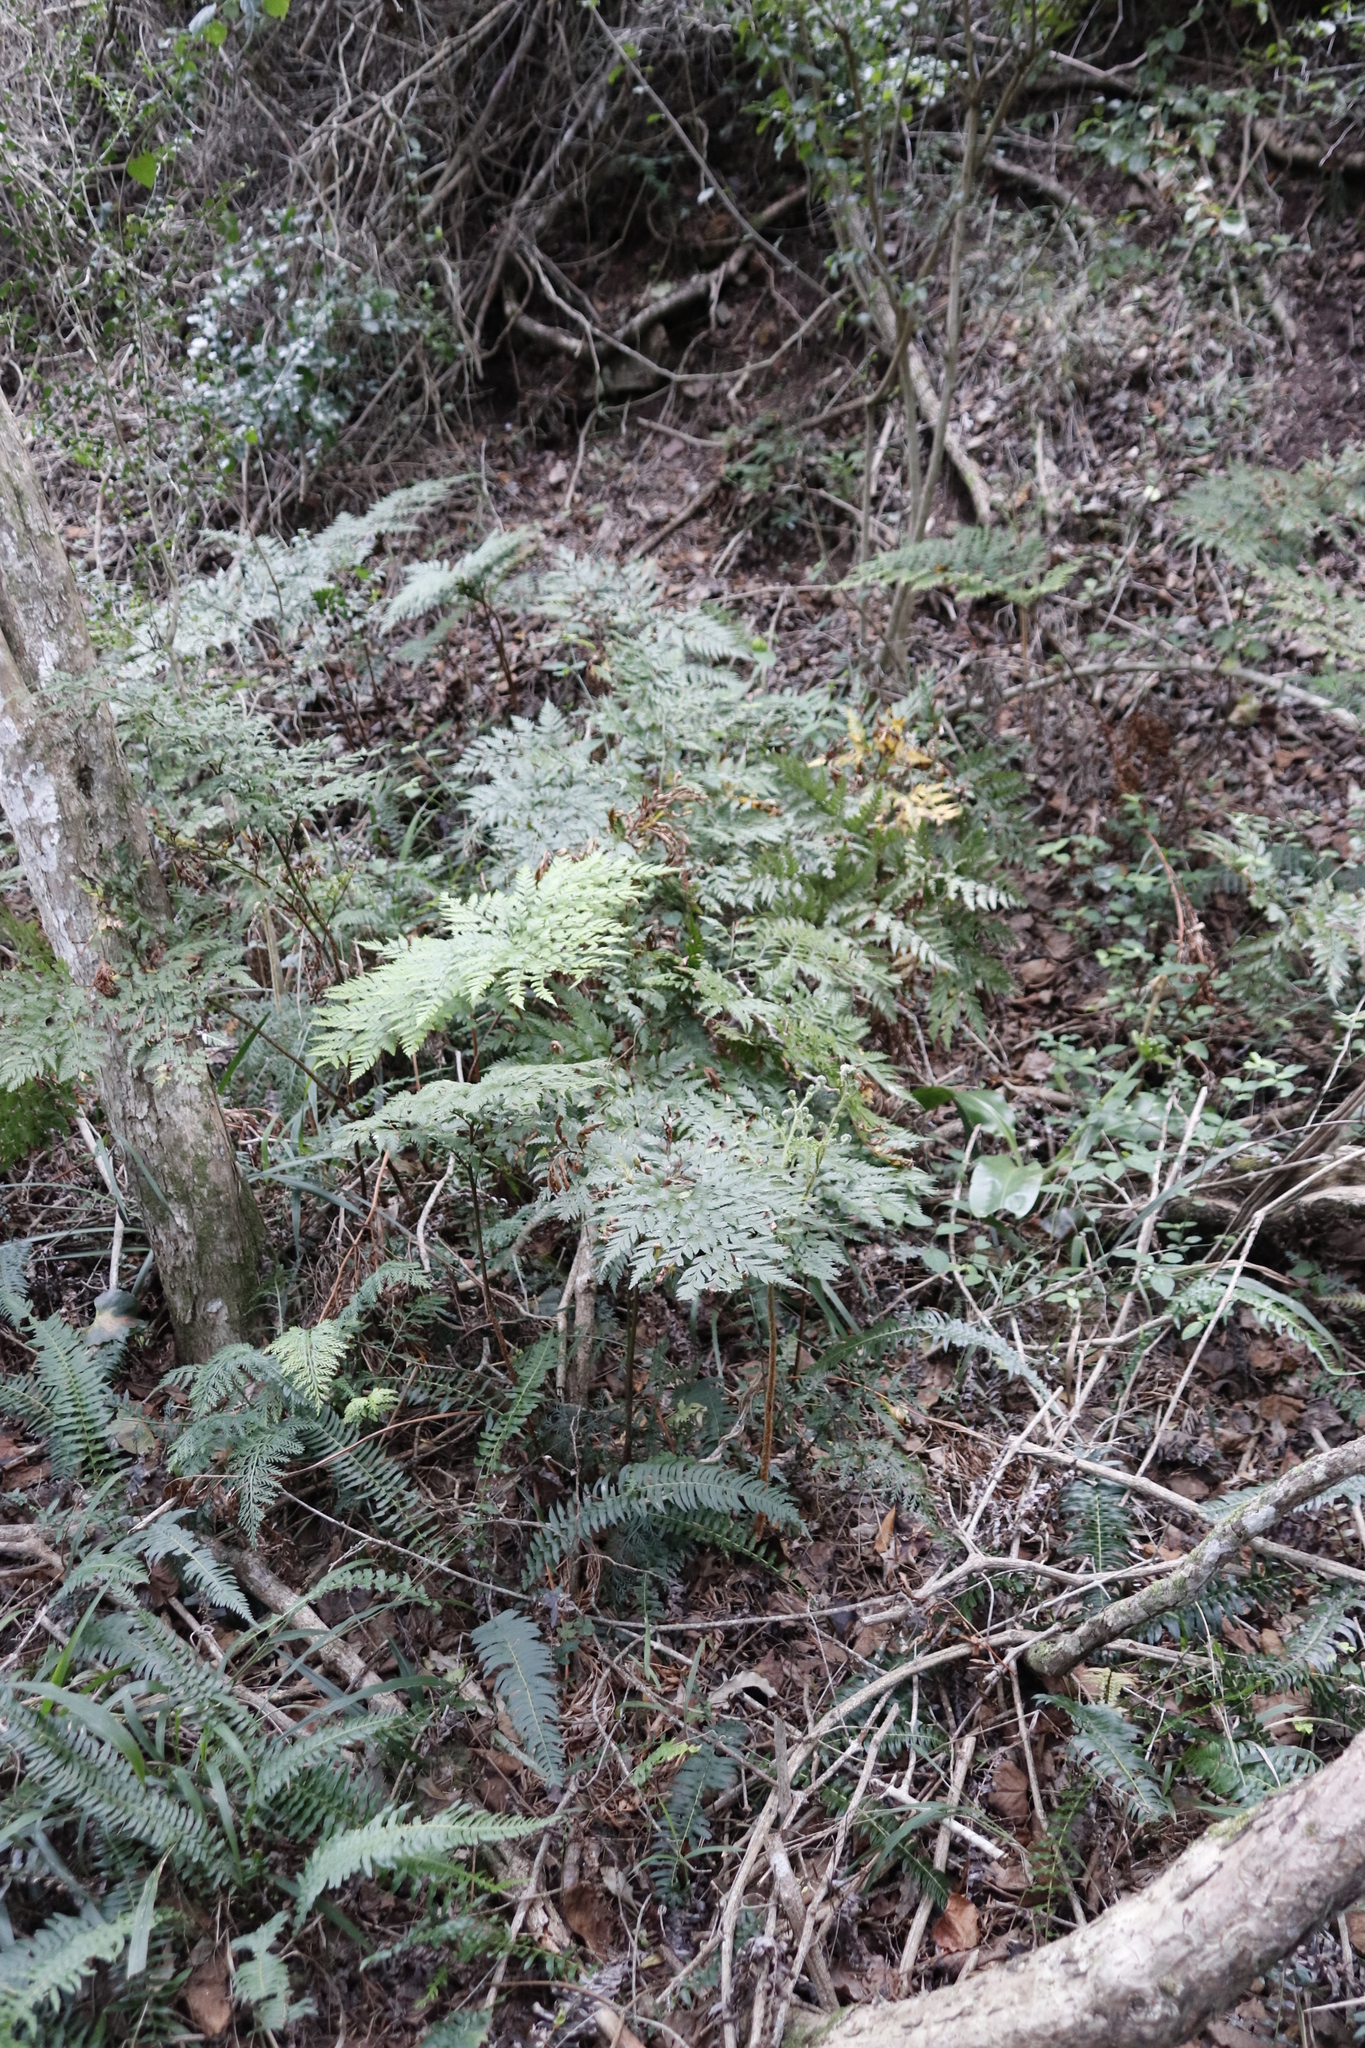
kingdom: Plantae
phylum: Tracheophyta
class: Polypodiopsida
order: Polypodiales
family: Dryopteridaceae
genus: Rumohra
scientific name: Rumohra adiantiformis
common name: Leather fern
